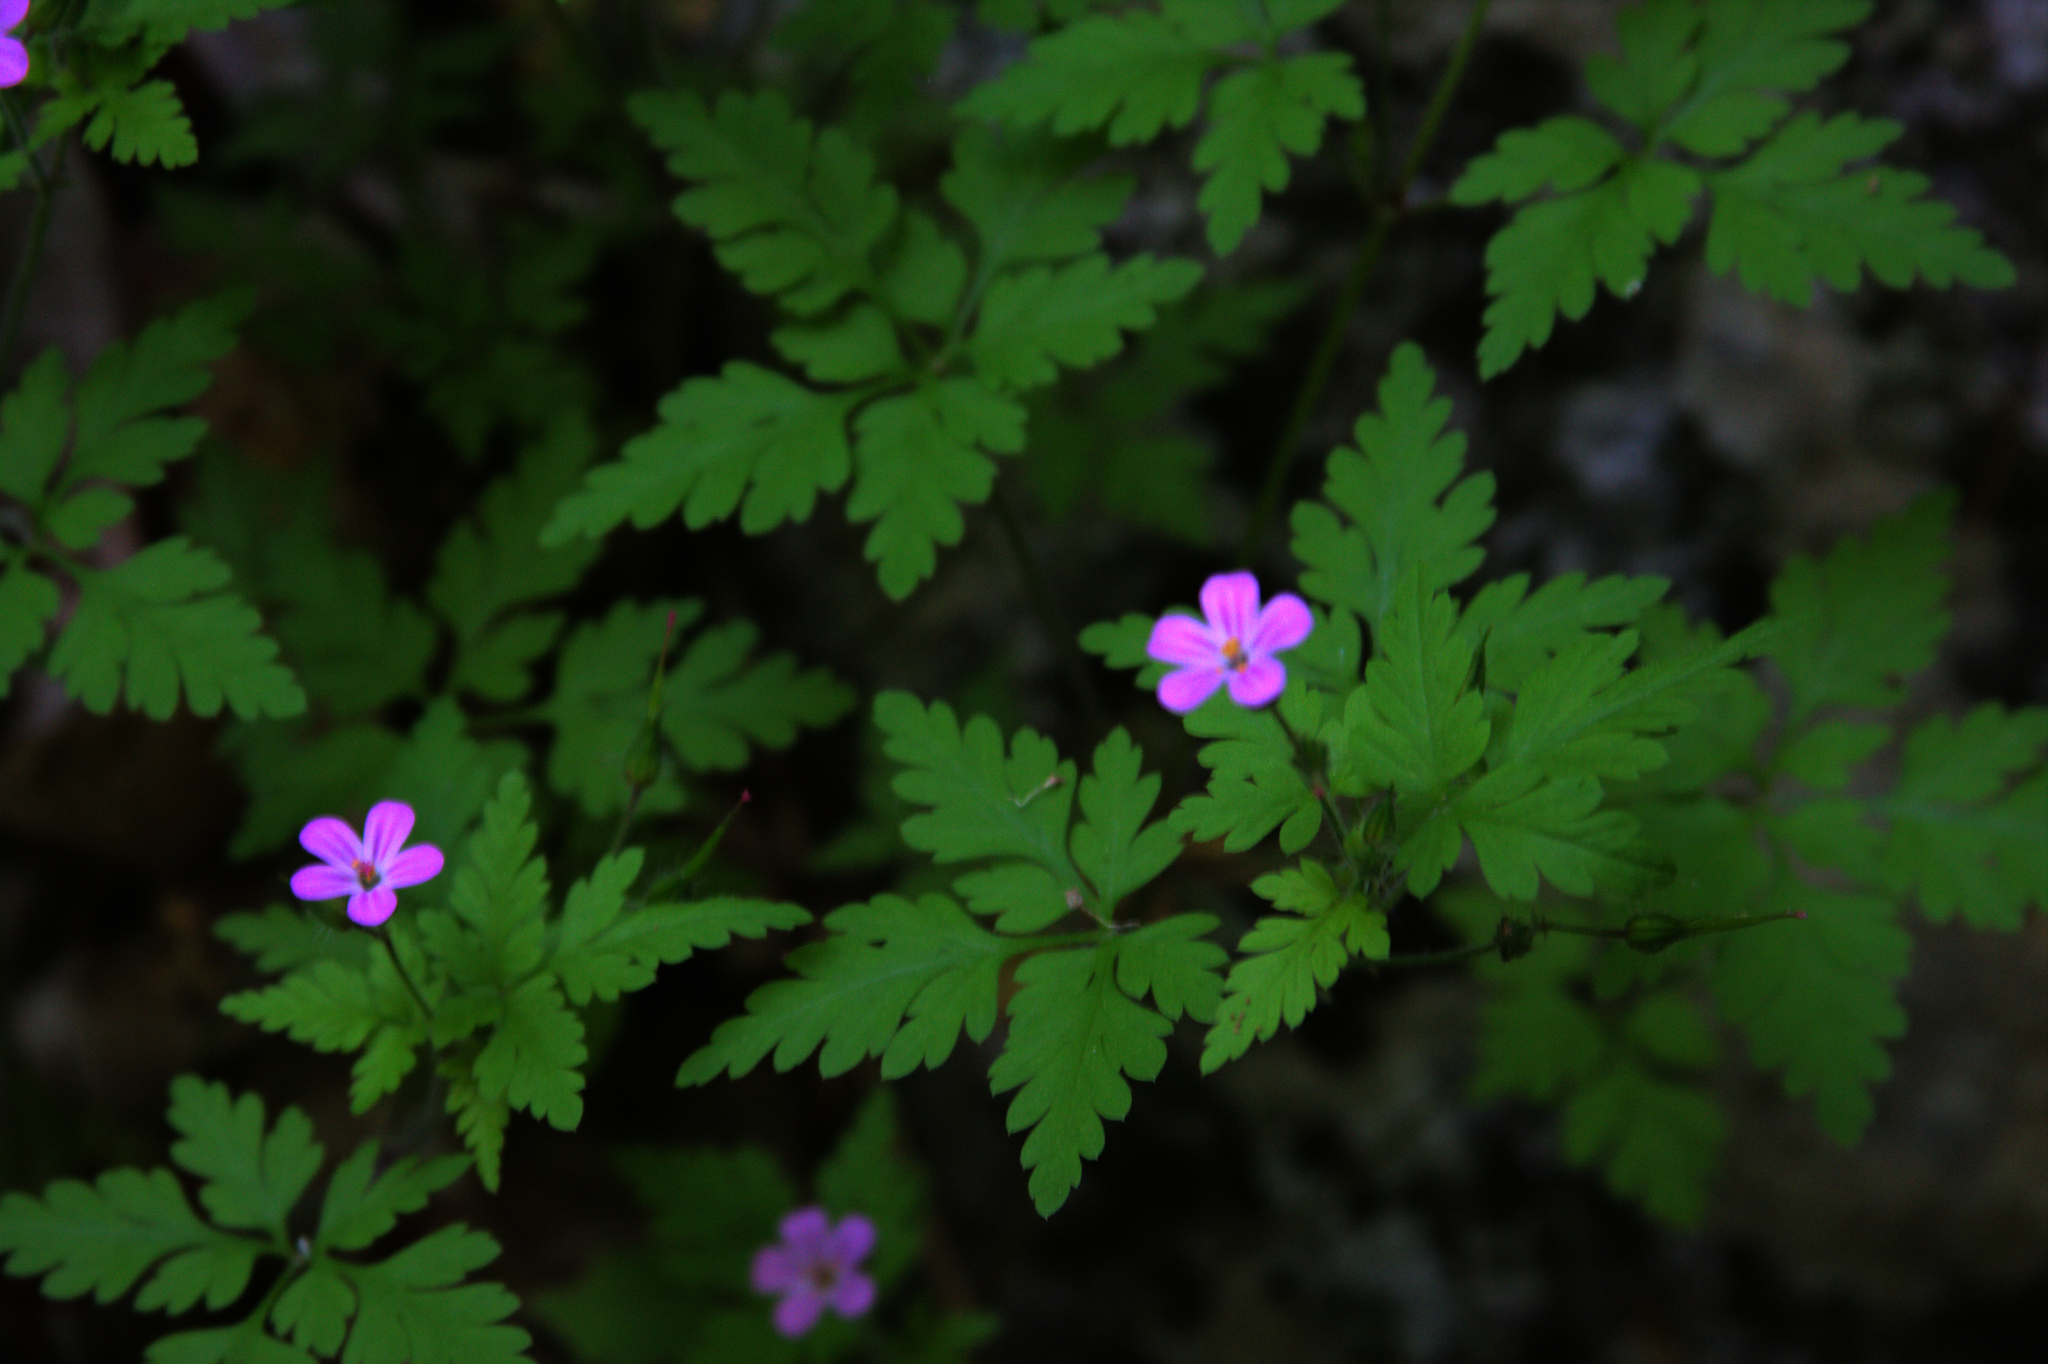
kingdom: Plantae
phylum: Tracheophyta
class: Magnoliopsida
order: Geraniales
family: Geraniaceae
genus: Geranium
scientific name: Geranium robertianum
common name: Herb-robert
